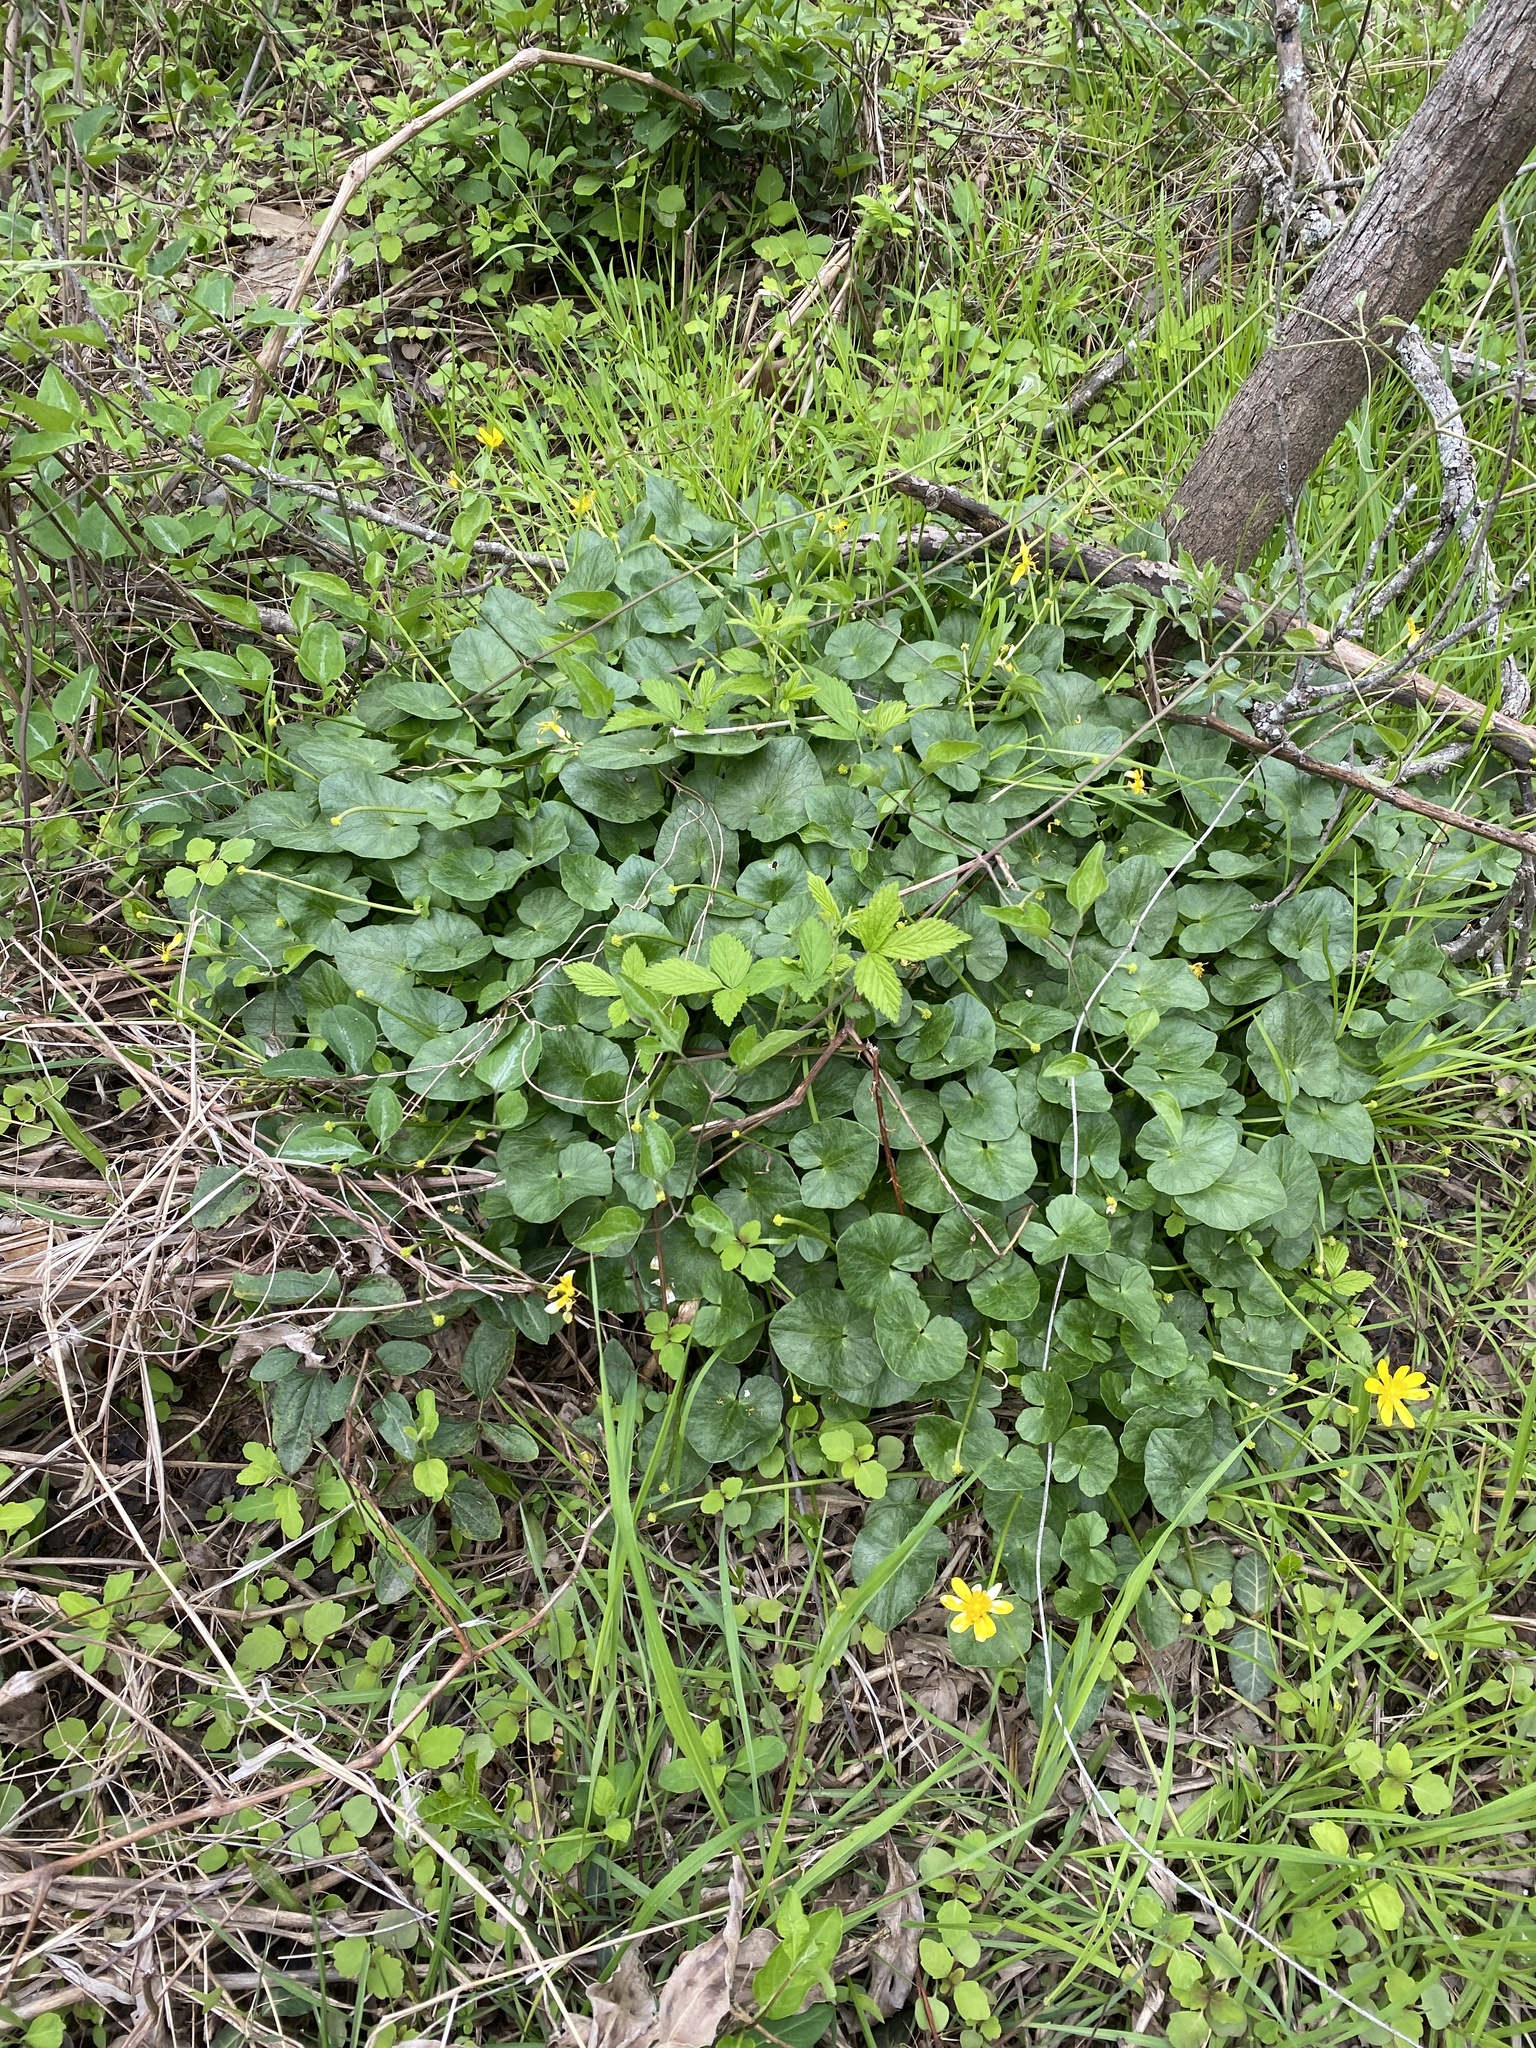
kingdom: Plantae
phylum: Tracheophyta
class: Magnoliopsida
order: Ranunculales
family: Ranunculaceae
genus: Ficaria
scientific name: Ficaria verna
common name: Lesser celandine
